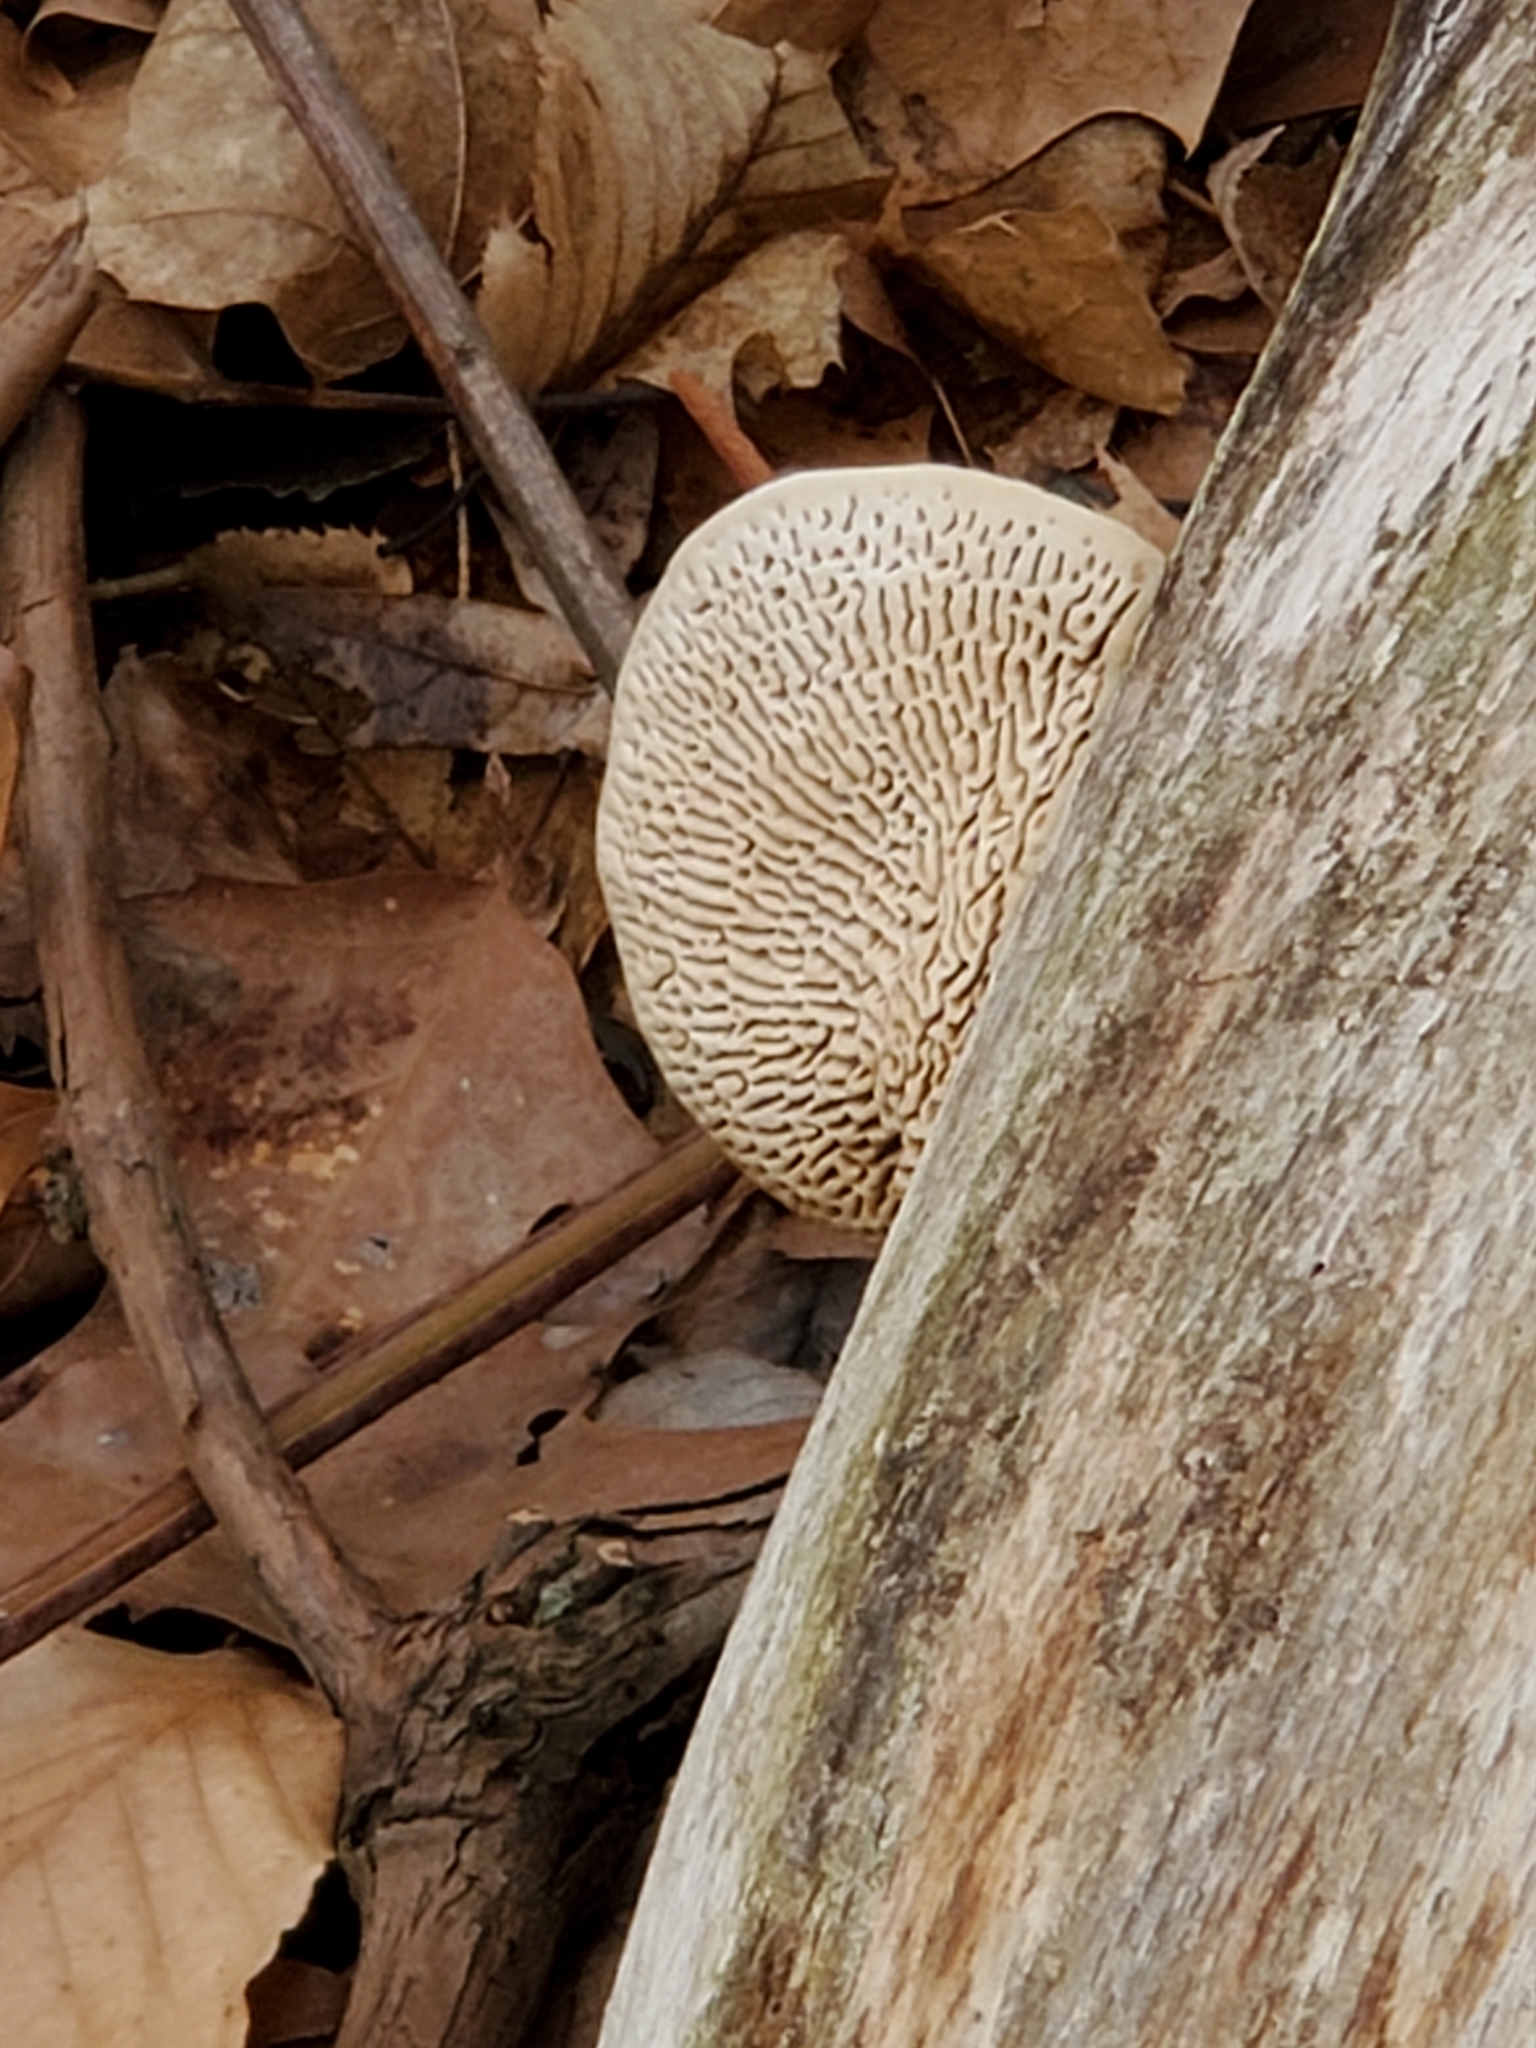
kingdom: Fungi
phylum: Basidiomycota
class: Agaricomycetes
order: Polyporales
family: Fomitopsidaceae
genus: Fomitopsis
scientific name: Fomitopsis
